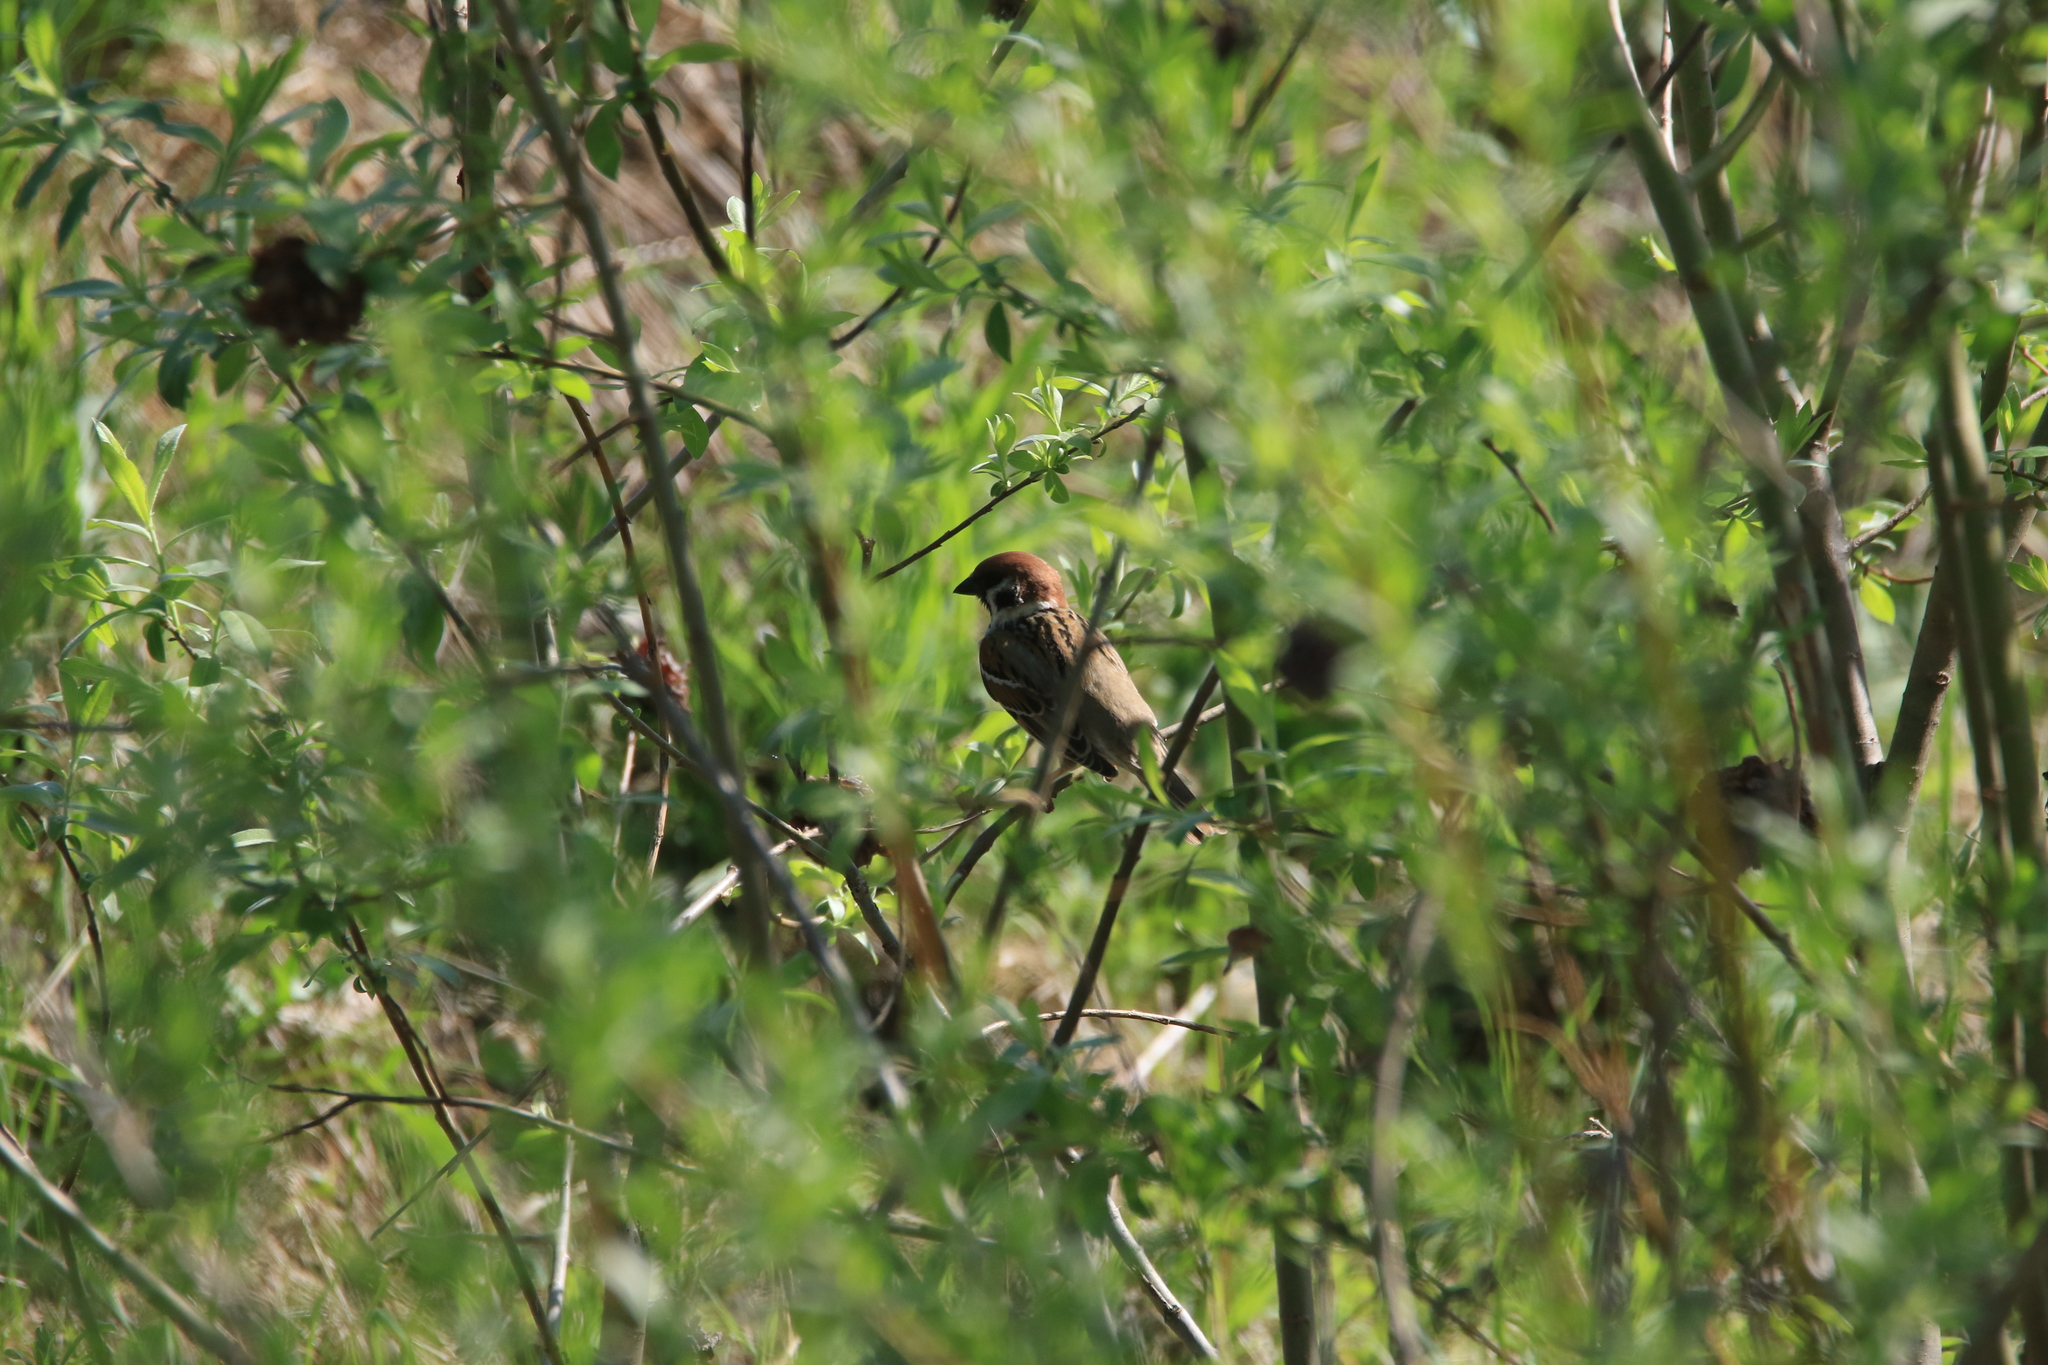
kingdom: Animalia
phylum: Chordata
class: Aves
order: Passeriformes
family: Passeridae
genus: Passer
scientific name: Passer montanus
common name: Eurasian tree sparrow
